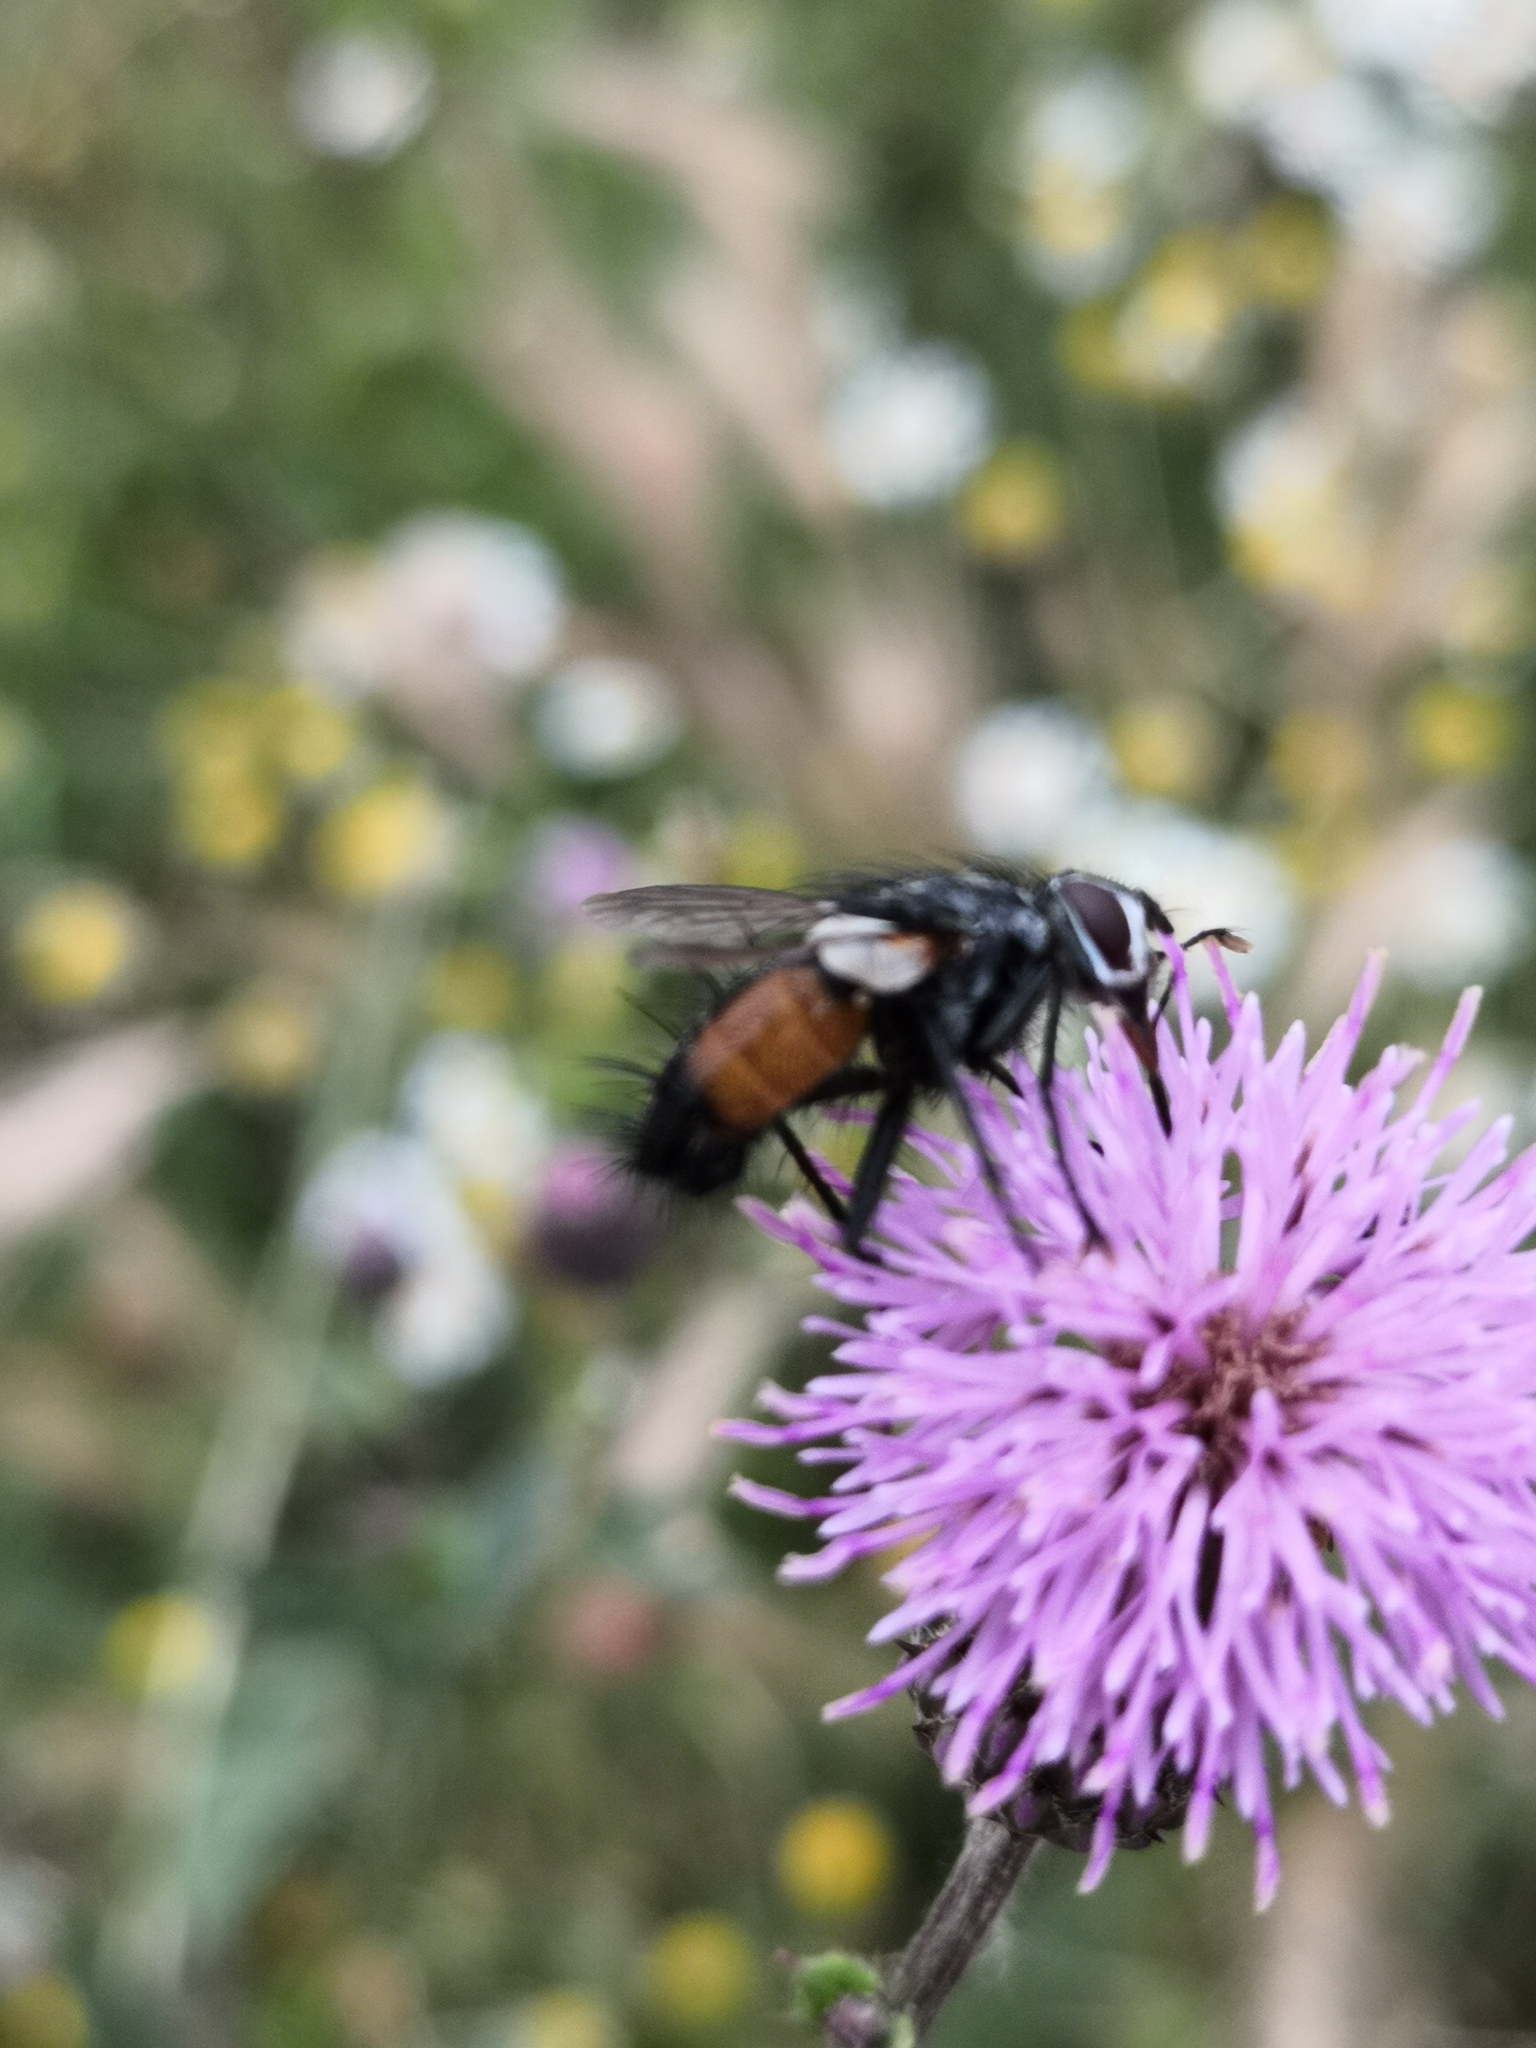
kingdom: Animalia
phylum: Arthropoda
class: Insecta
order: Diptera
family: Tachinidae
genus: Eriothrix
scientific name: Eriothrix rufomaculatus
